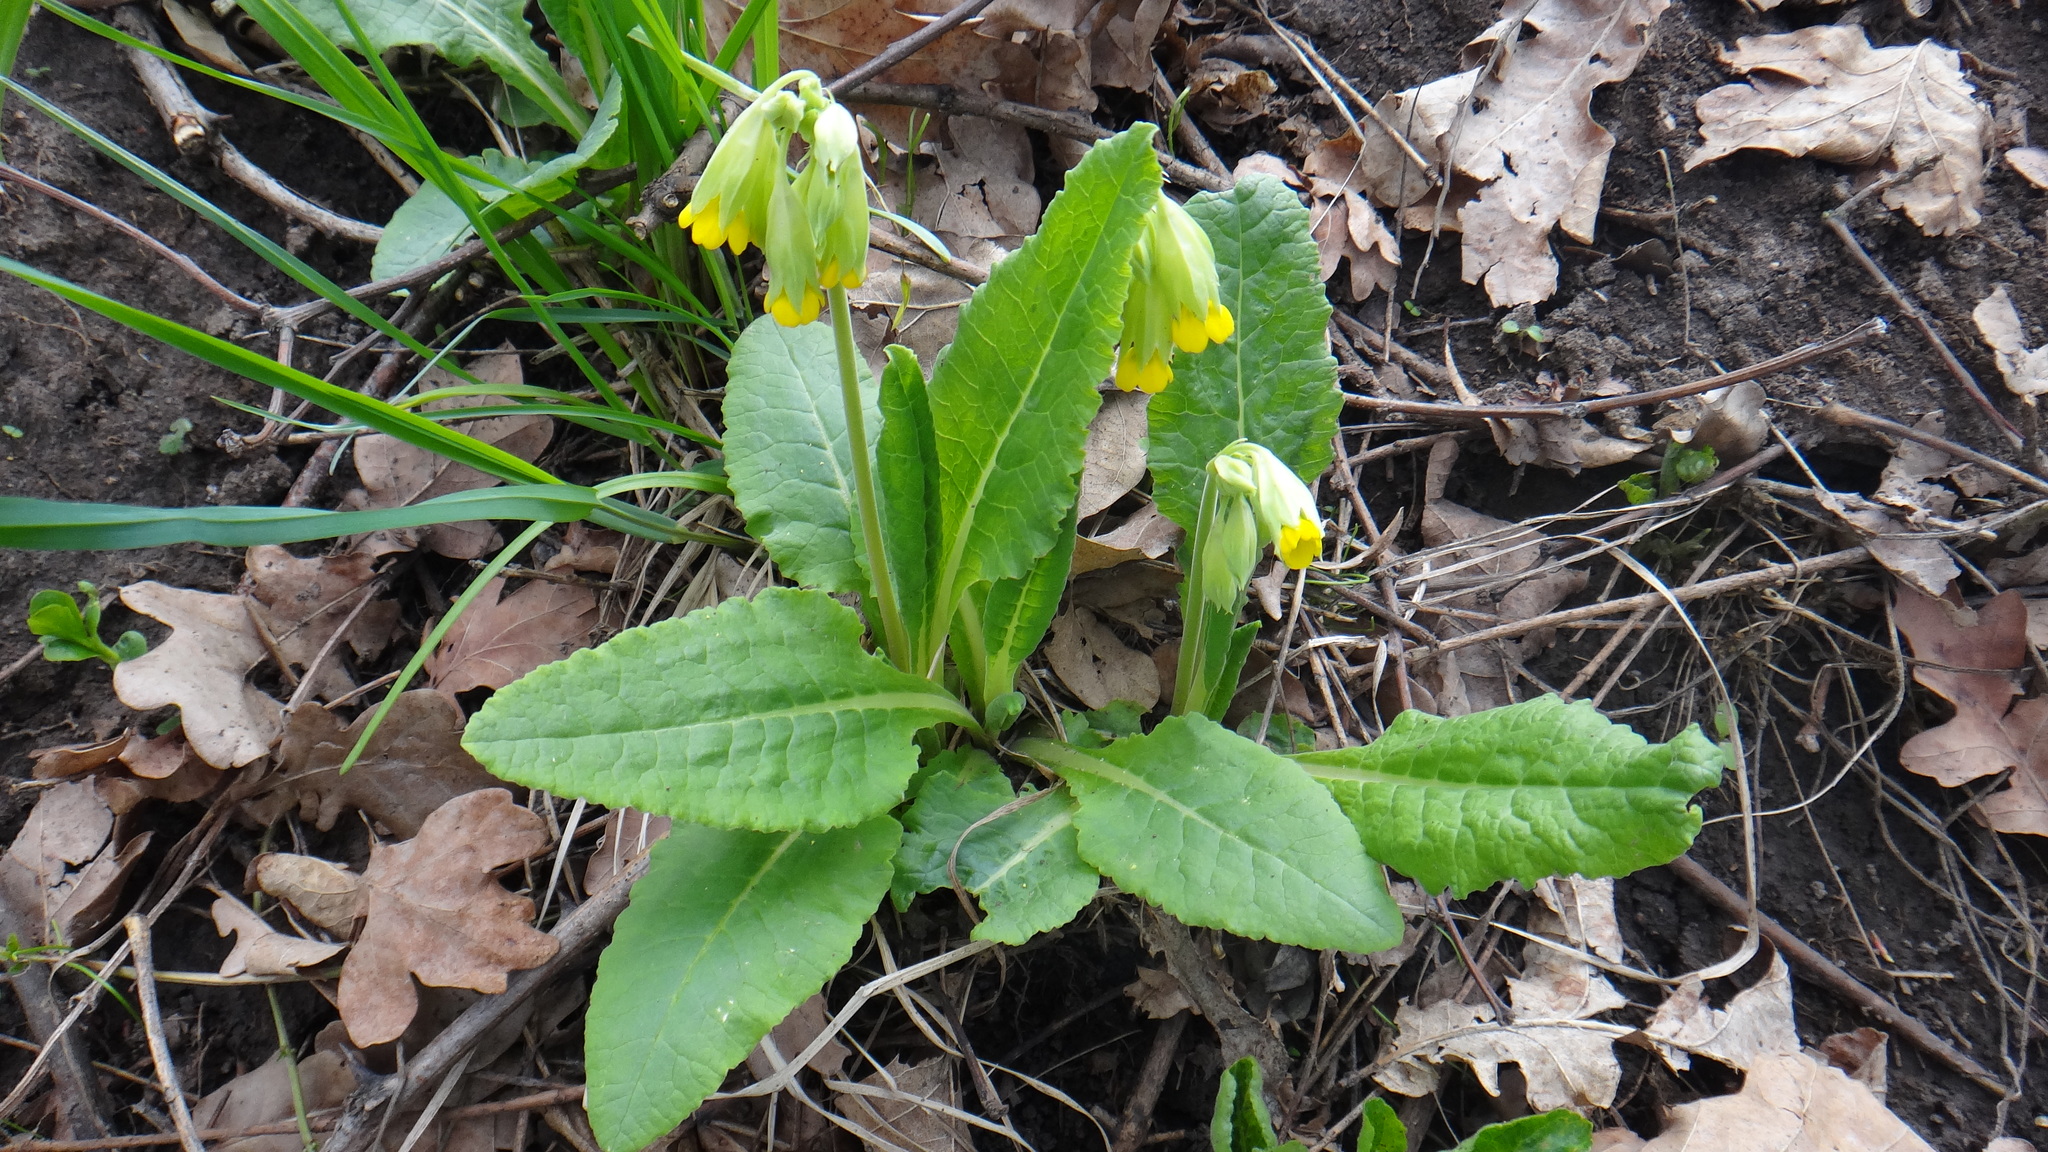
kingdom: Plantae
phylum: Tracheophyta
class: Magnoliopsida
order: Ericales
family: Primulaceae
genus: Primula
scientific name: Primula veris
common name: Cowslip
